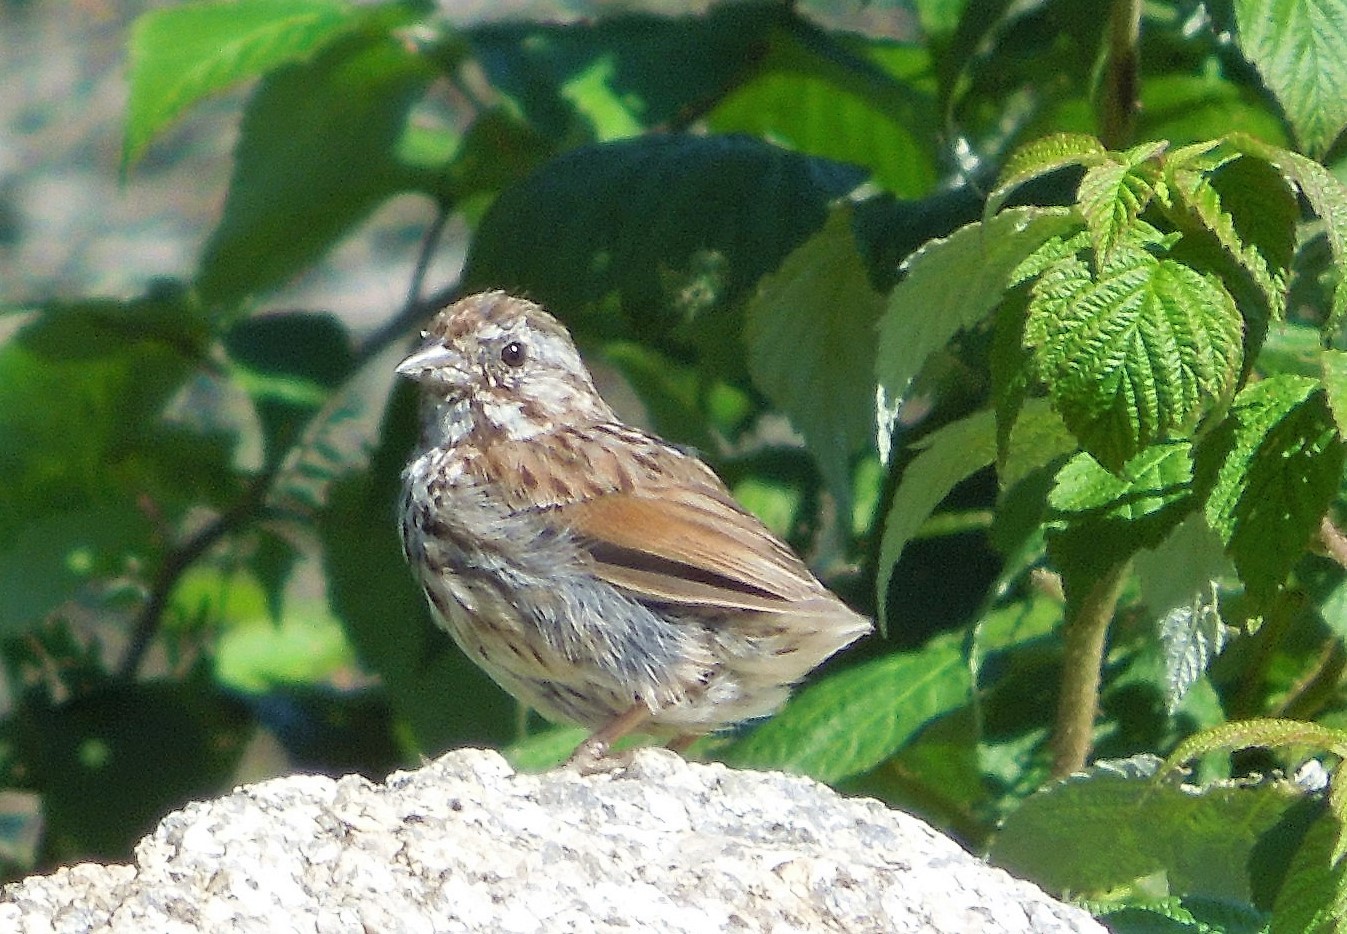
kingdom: Animalia
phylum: Chordata
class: Aves
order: Passeriformes
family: Passerellidae
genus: Melospiza
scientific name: Melospiza melodia
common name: Song sparrow
